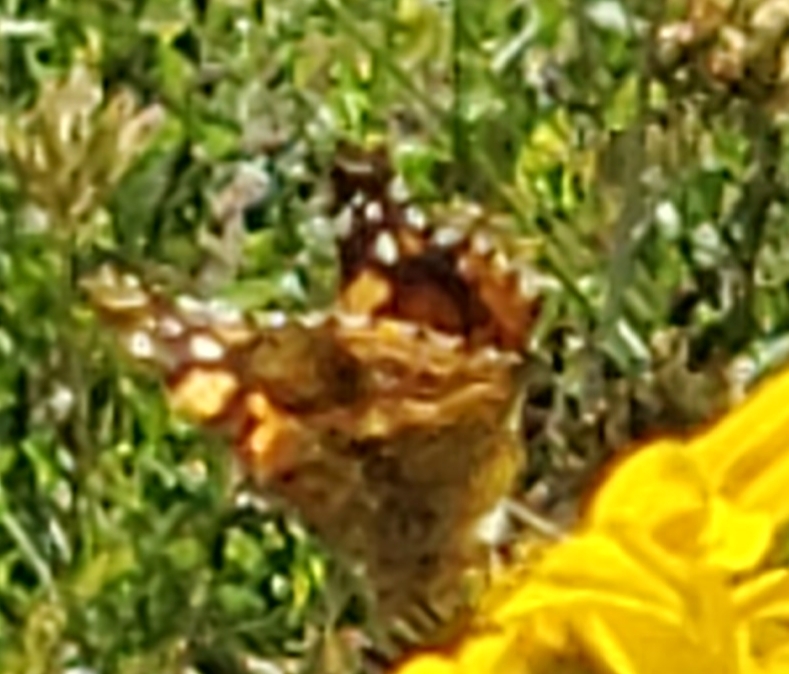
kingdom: Animalia
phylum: Arthropoda
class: Insecta
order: Lepidoptera
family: Nymphalidae
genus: Vanessa
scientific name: Vanessa annabella
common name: West coast lady
